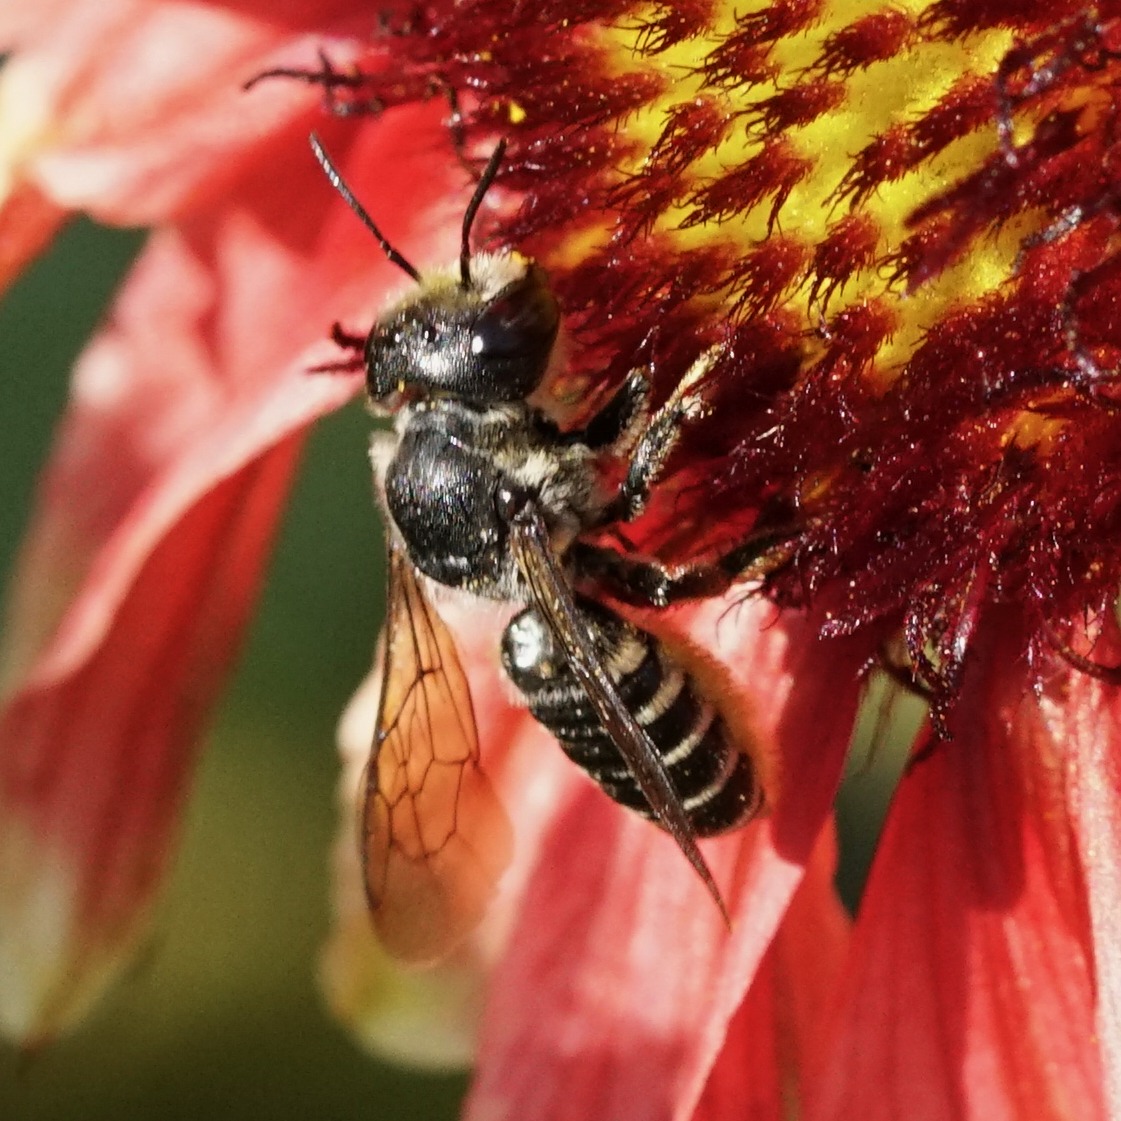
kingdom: Animalia
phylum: Arthropoda
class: Insecta
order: Hymenoptera
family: Megachilidae
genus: Megachile
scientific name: Megachile montivaga
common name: Silver-tailed petalcutter bee
